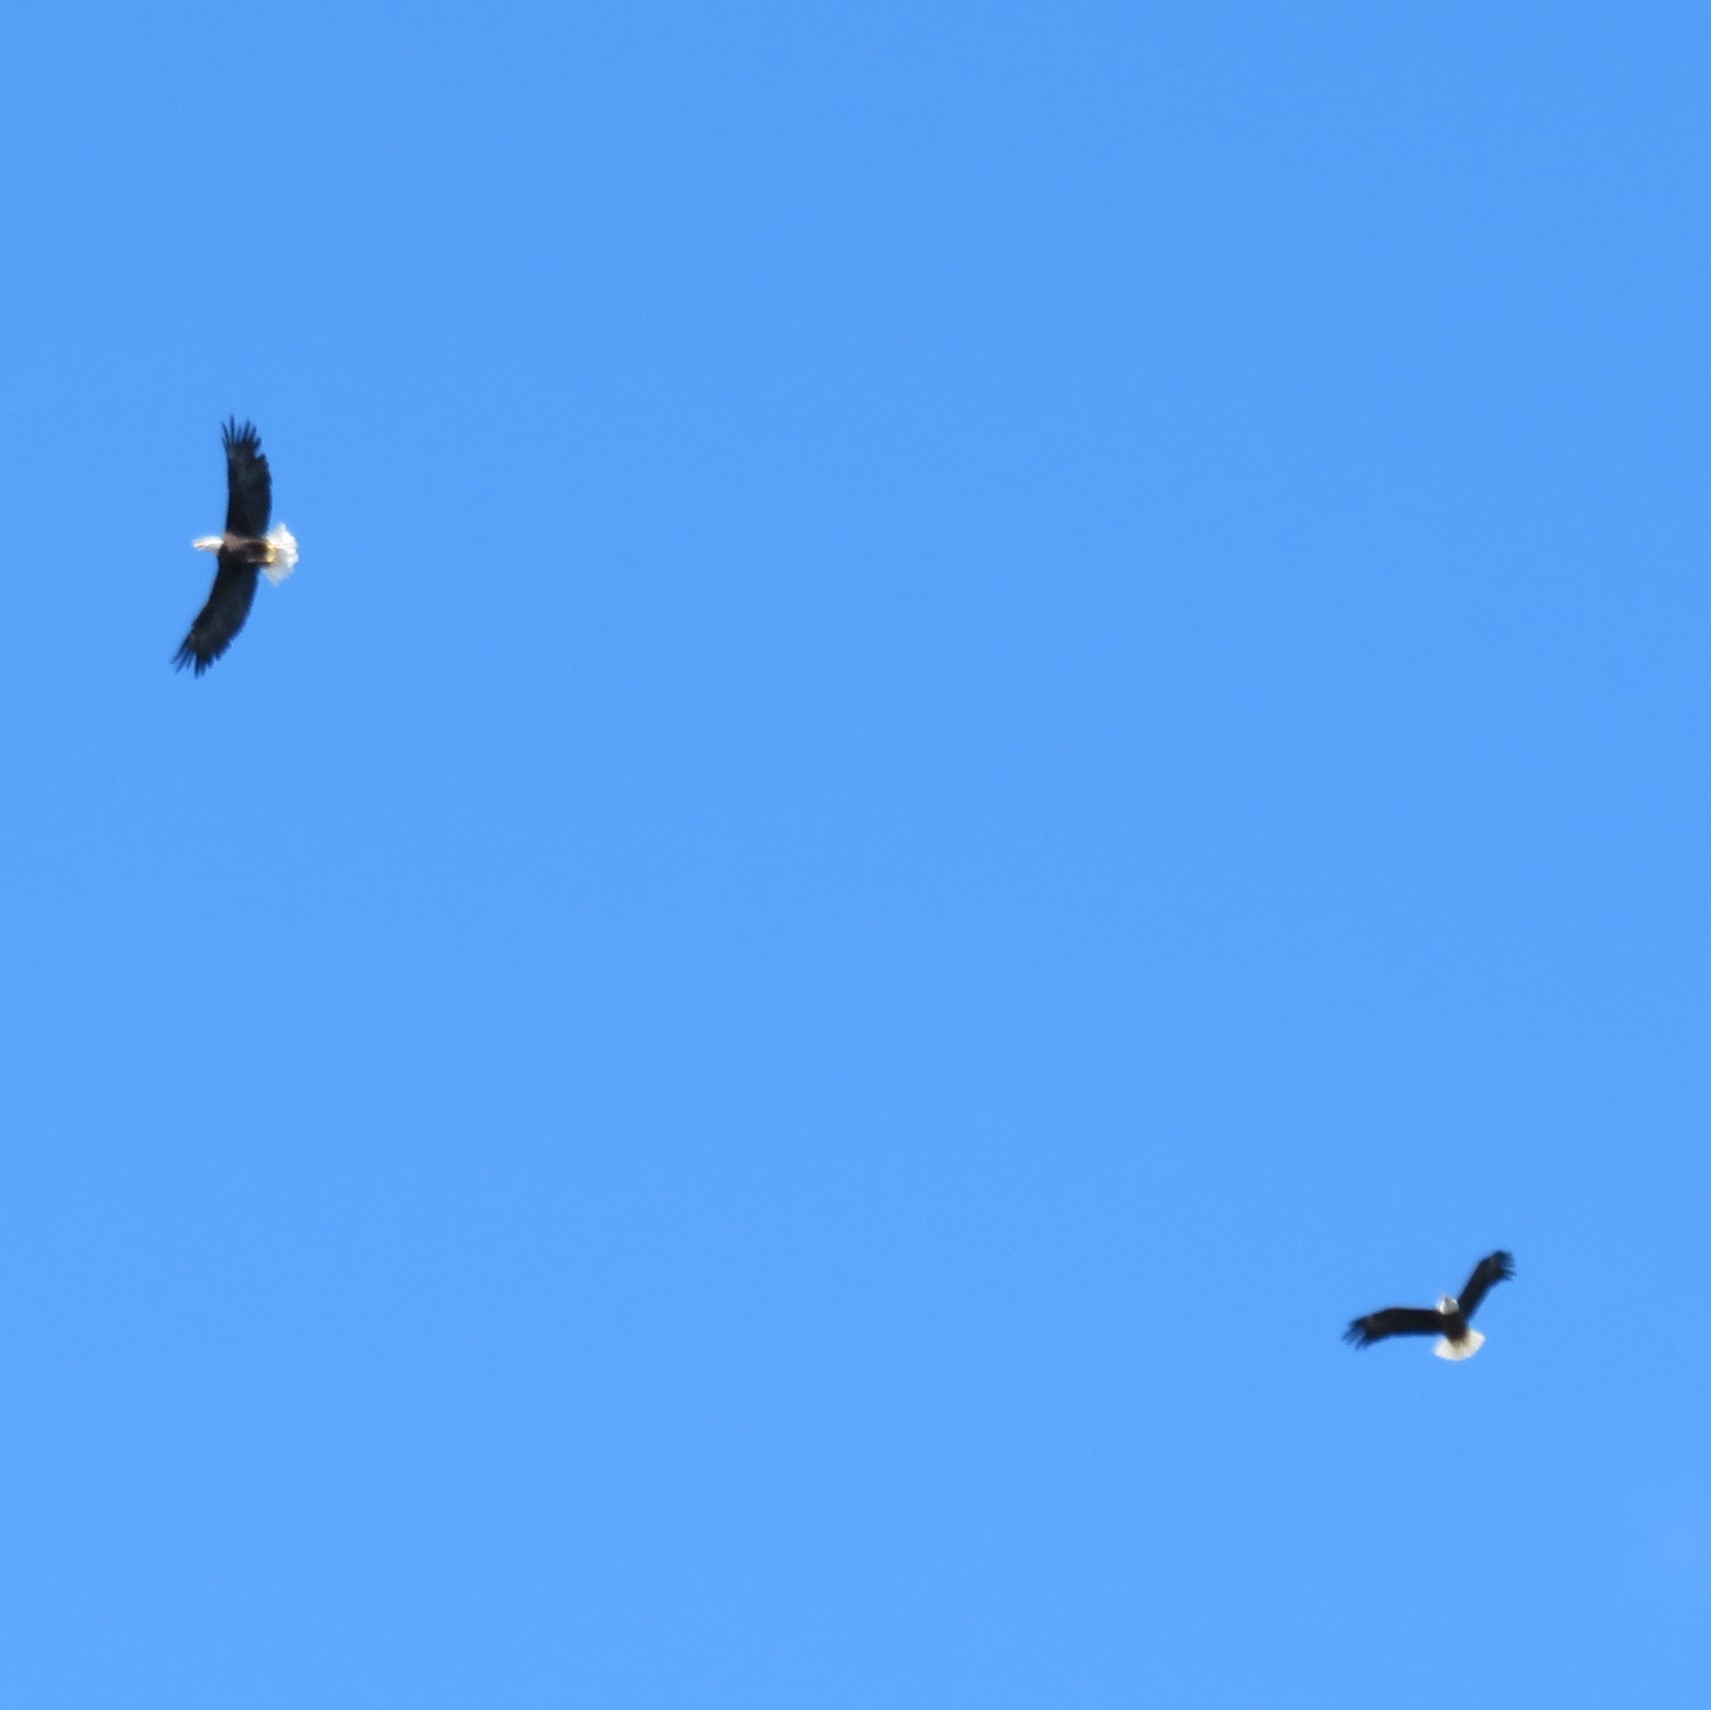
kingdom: Animalia
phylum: Chordata
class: Aves
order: Accipitriformes
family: Accipitridae
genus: Haliaeetus
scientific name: Haliaeetus leucocephalus
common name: Bald eagle
